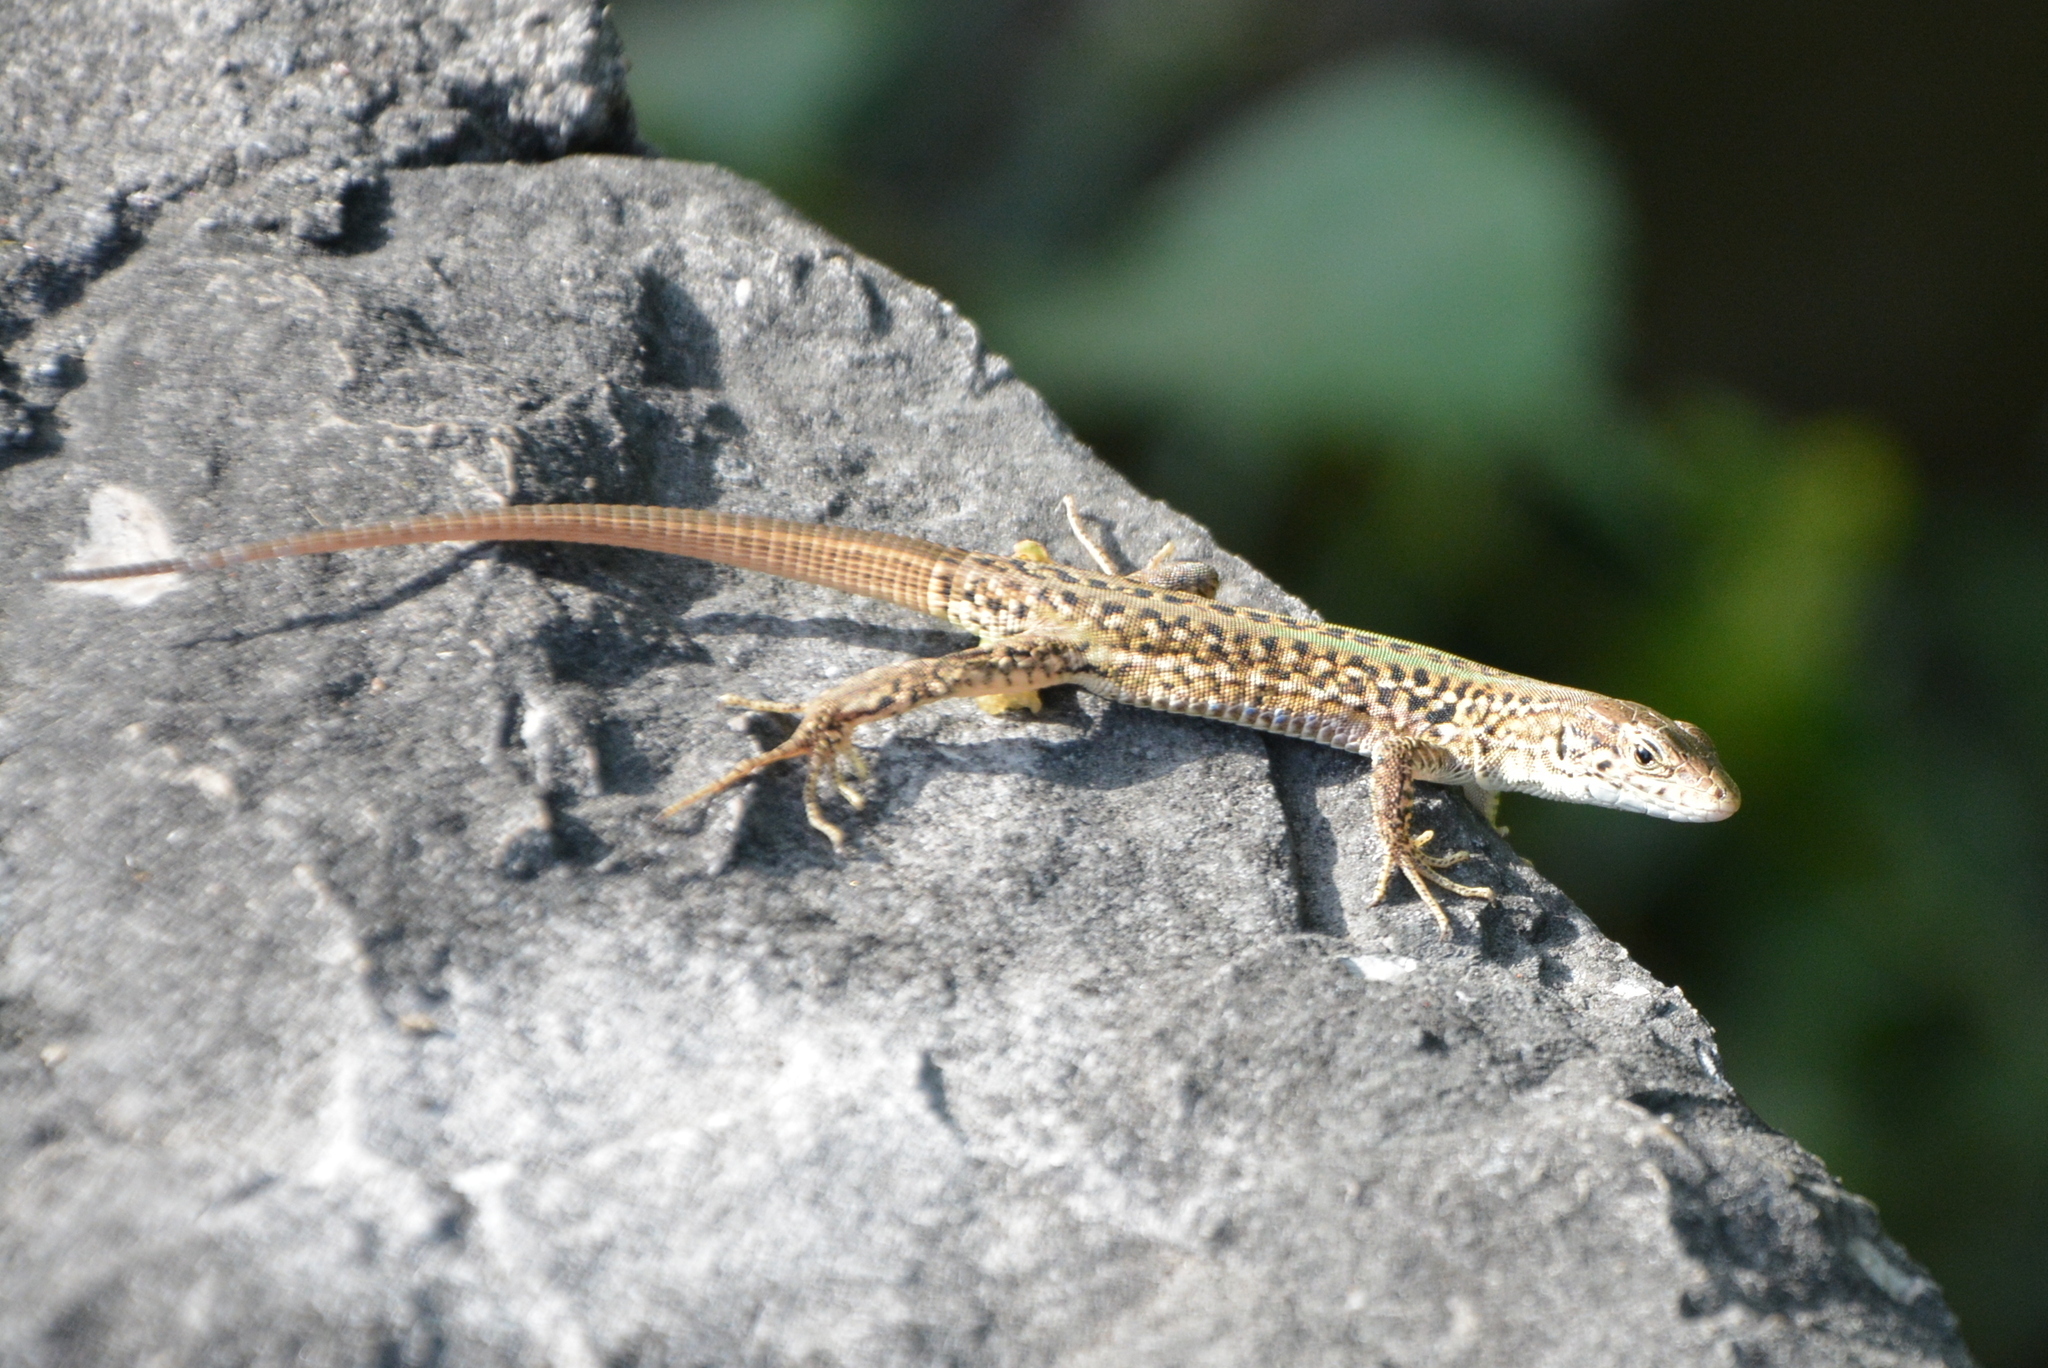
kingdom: Animalia
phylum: Chordata
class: Squamata
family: Lacertidae
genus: Podarcis
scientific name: Podarcis siculus
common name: Italian wall lizard
